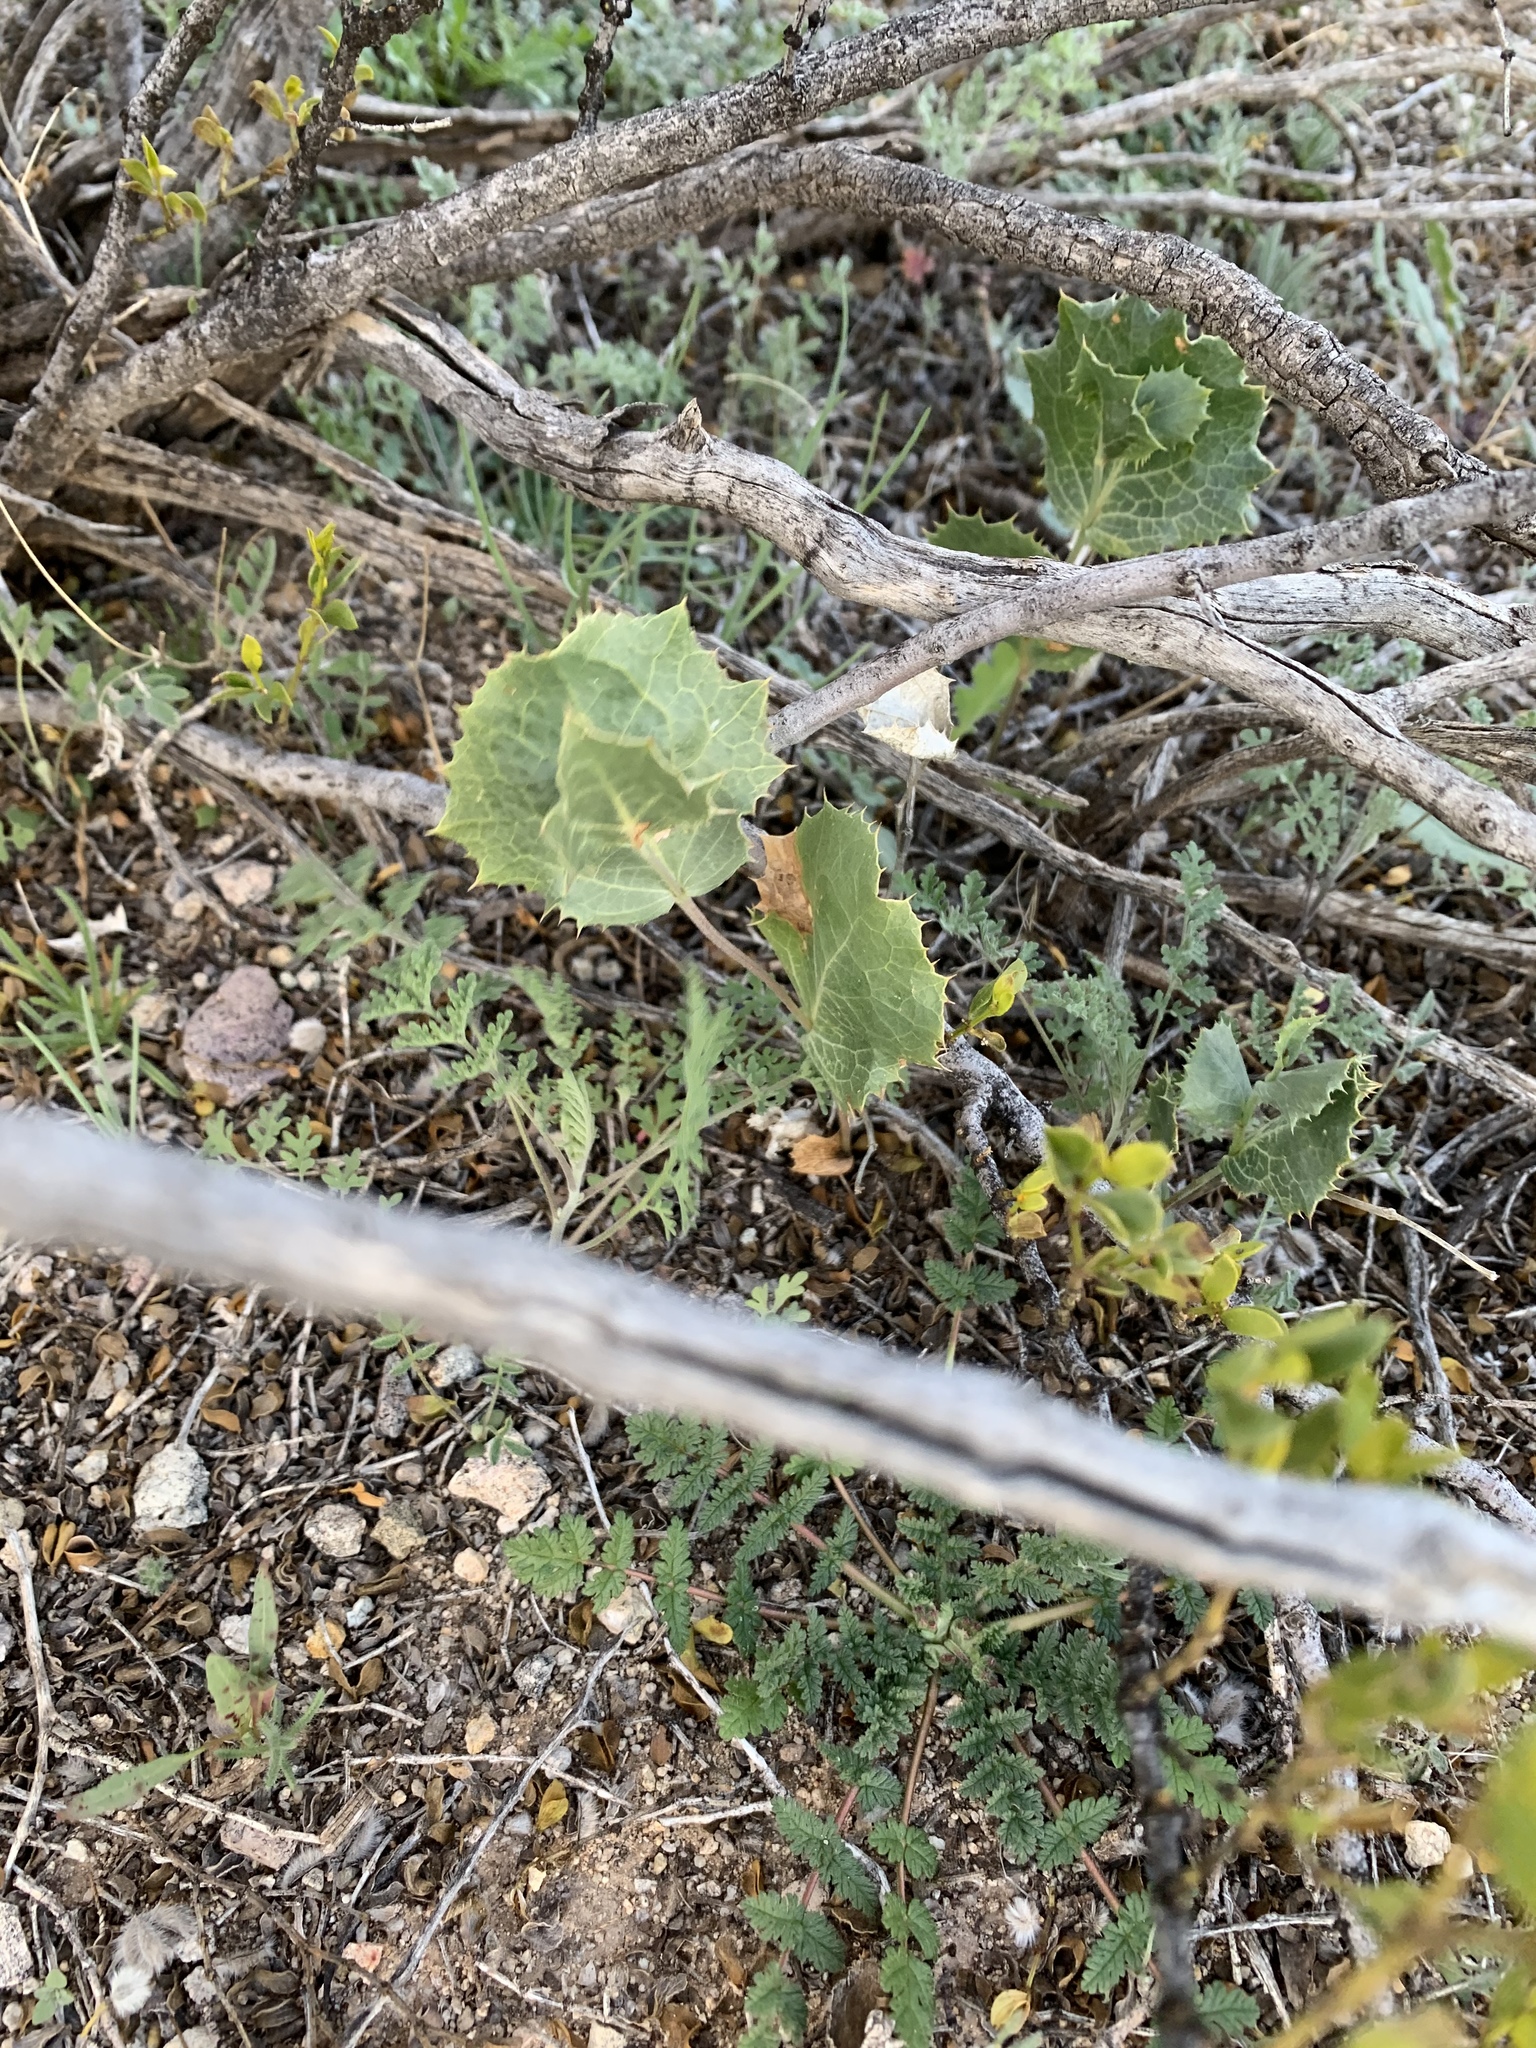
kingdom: Plantae
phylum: Tracheophyta
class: Magnoliopsida
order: Asterales
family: Asteraceae
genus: Acourtia
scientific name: Acourtia nana
